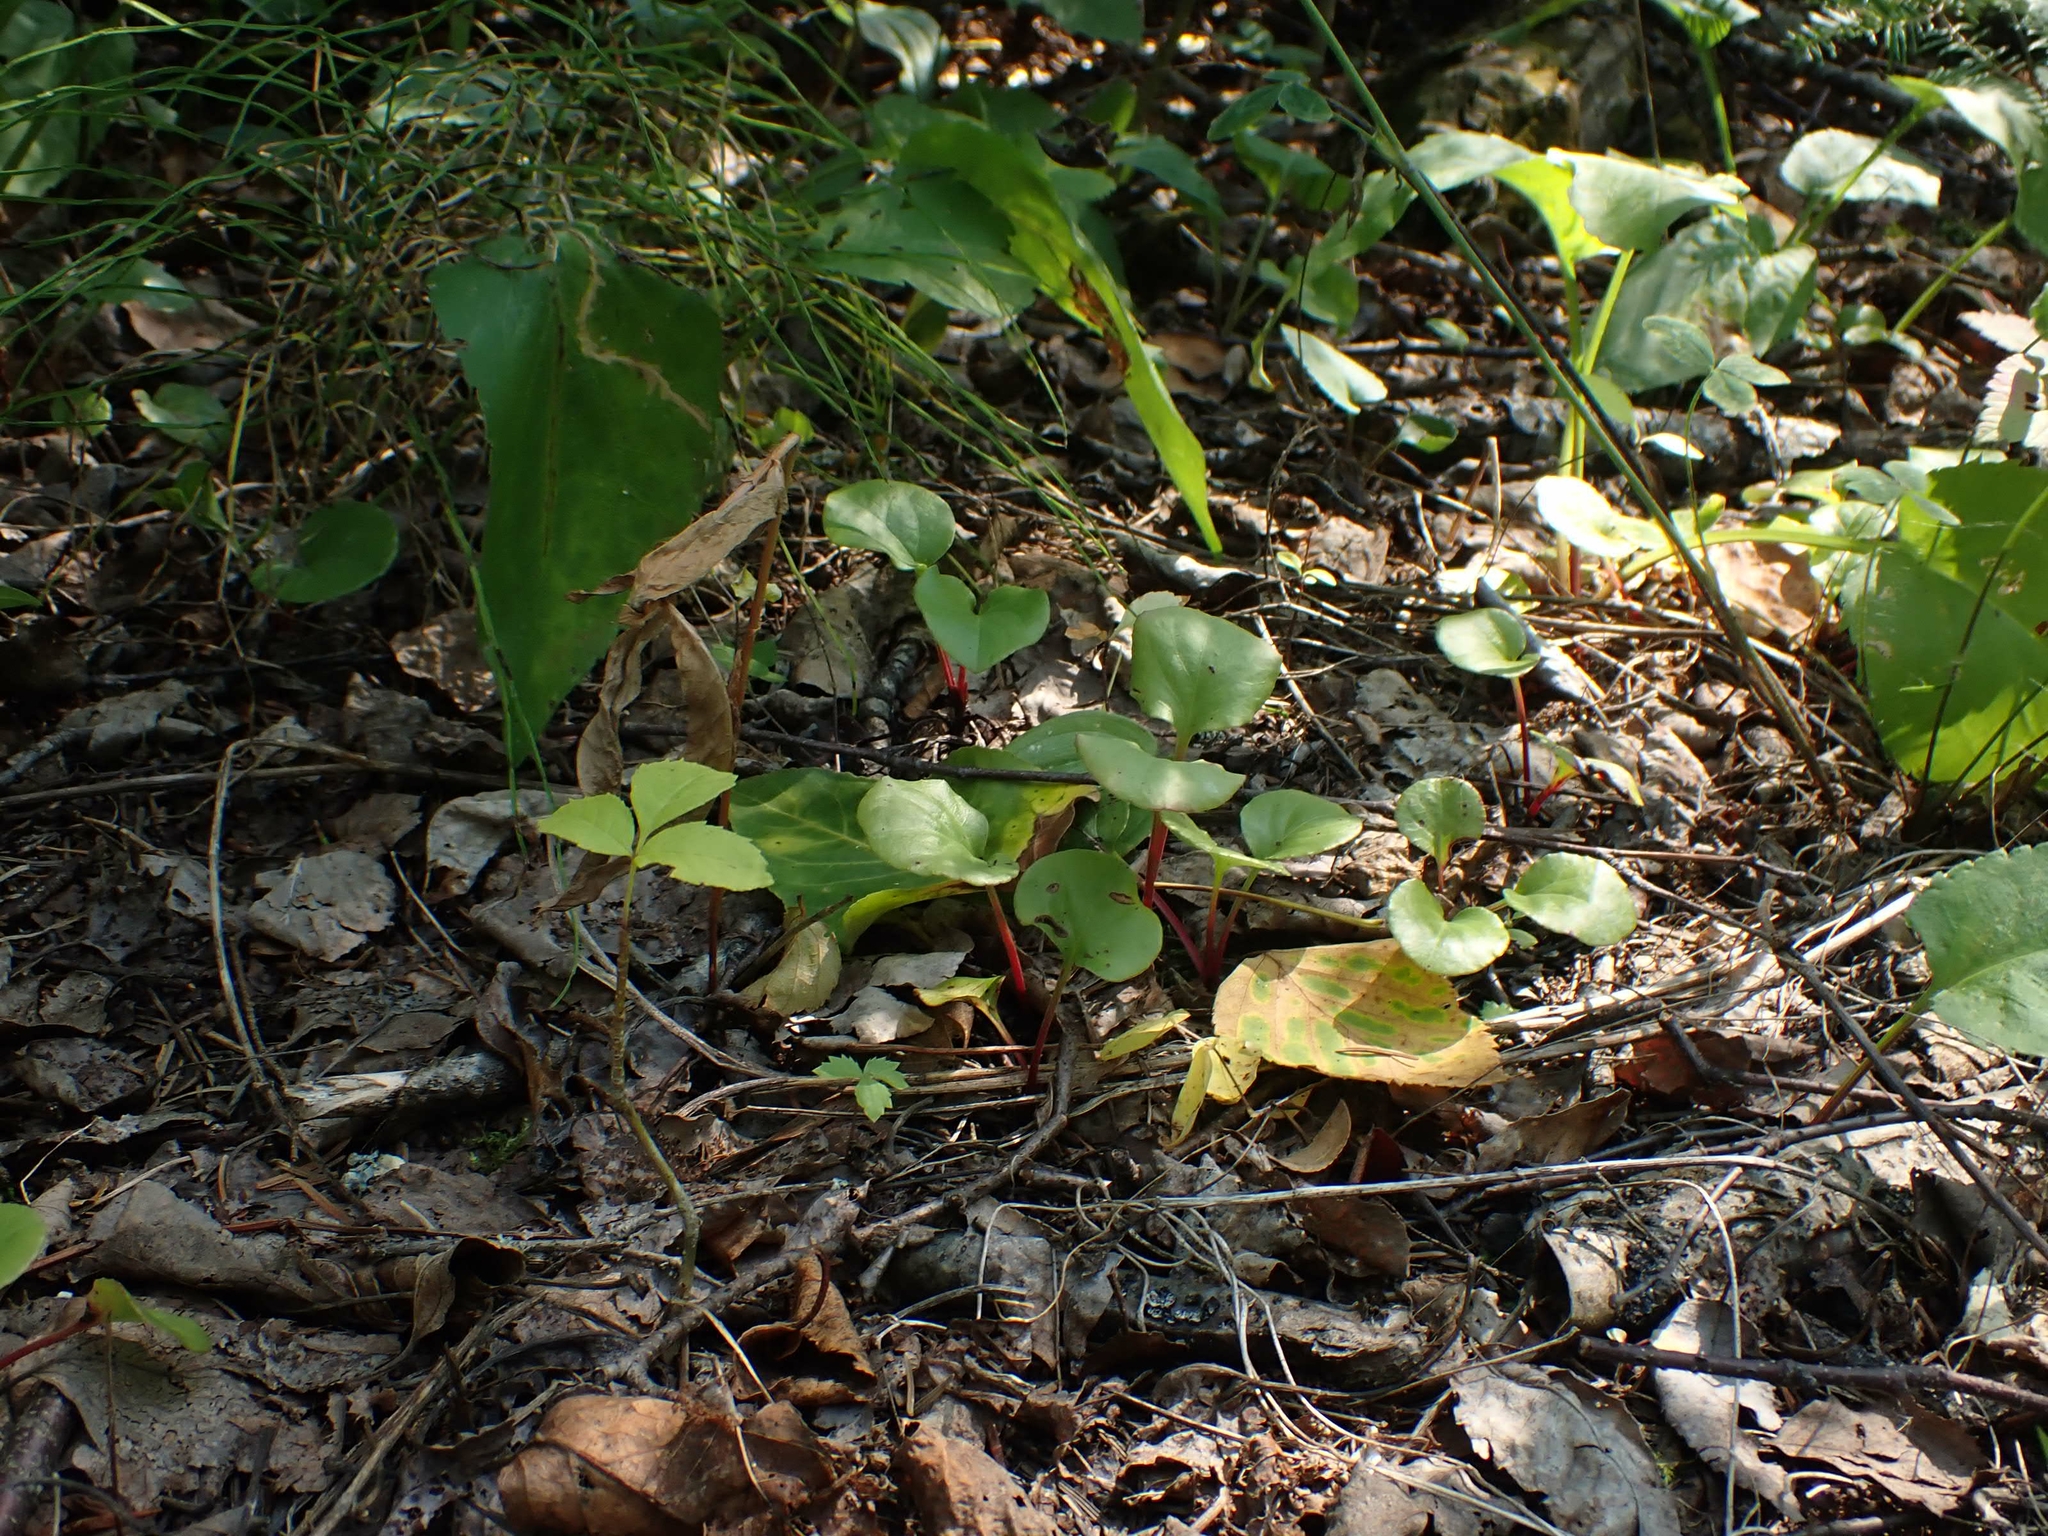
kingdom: Plantae
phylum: Tracheophyta
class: Magnoliopsida
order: Ericales
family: Ericaceae
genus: Pyrola
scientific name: Pyrola asarifolia
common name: Bog wintergreen
